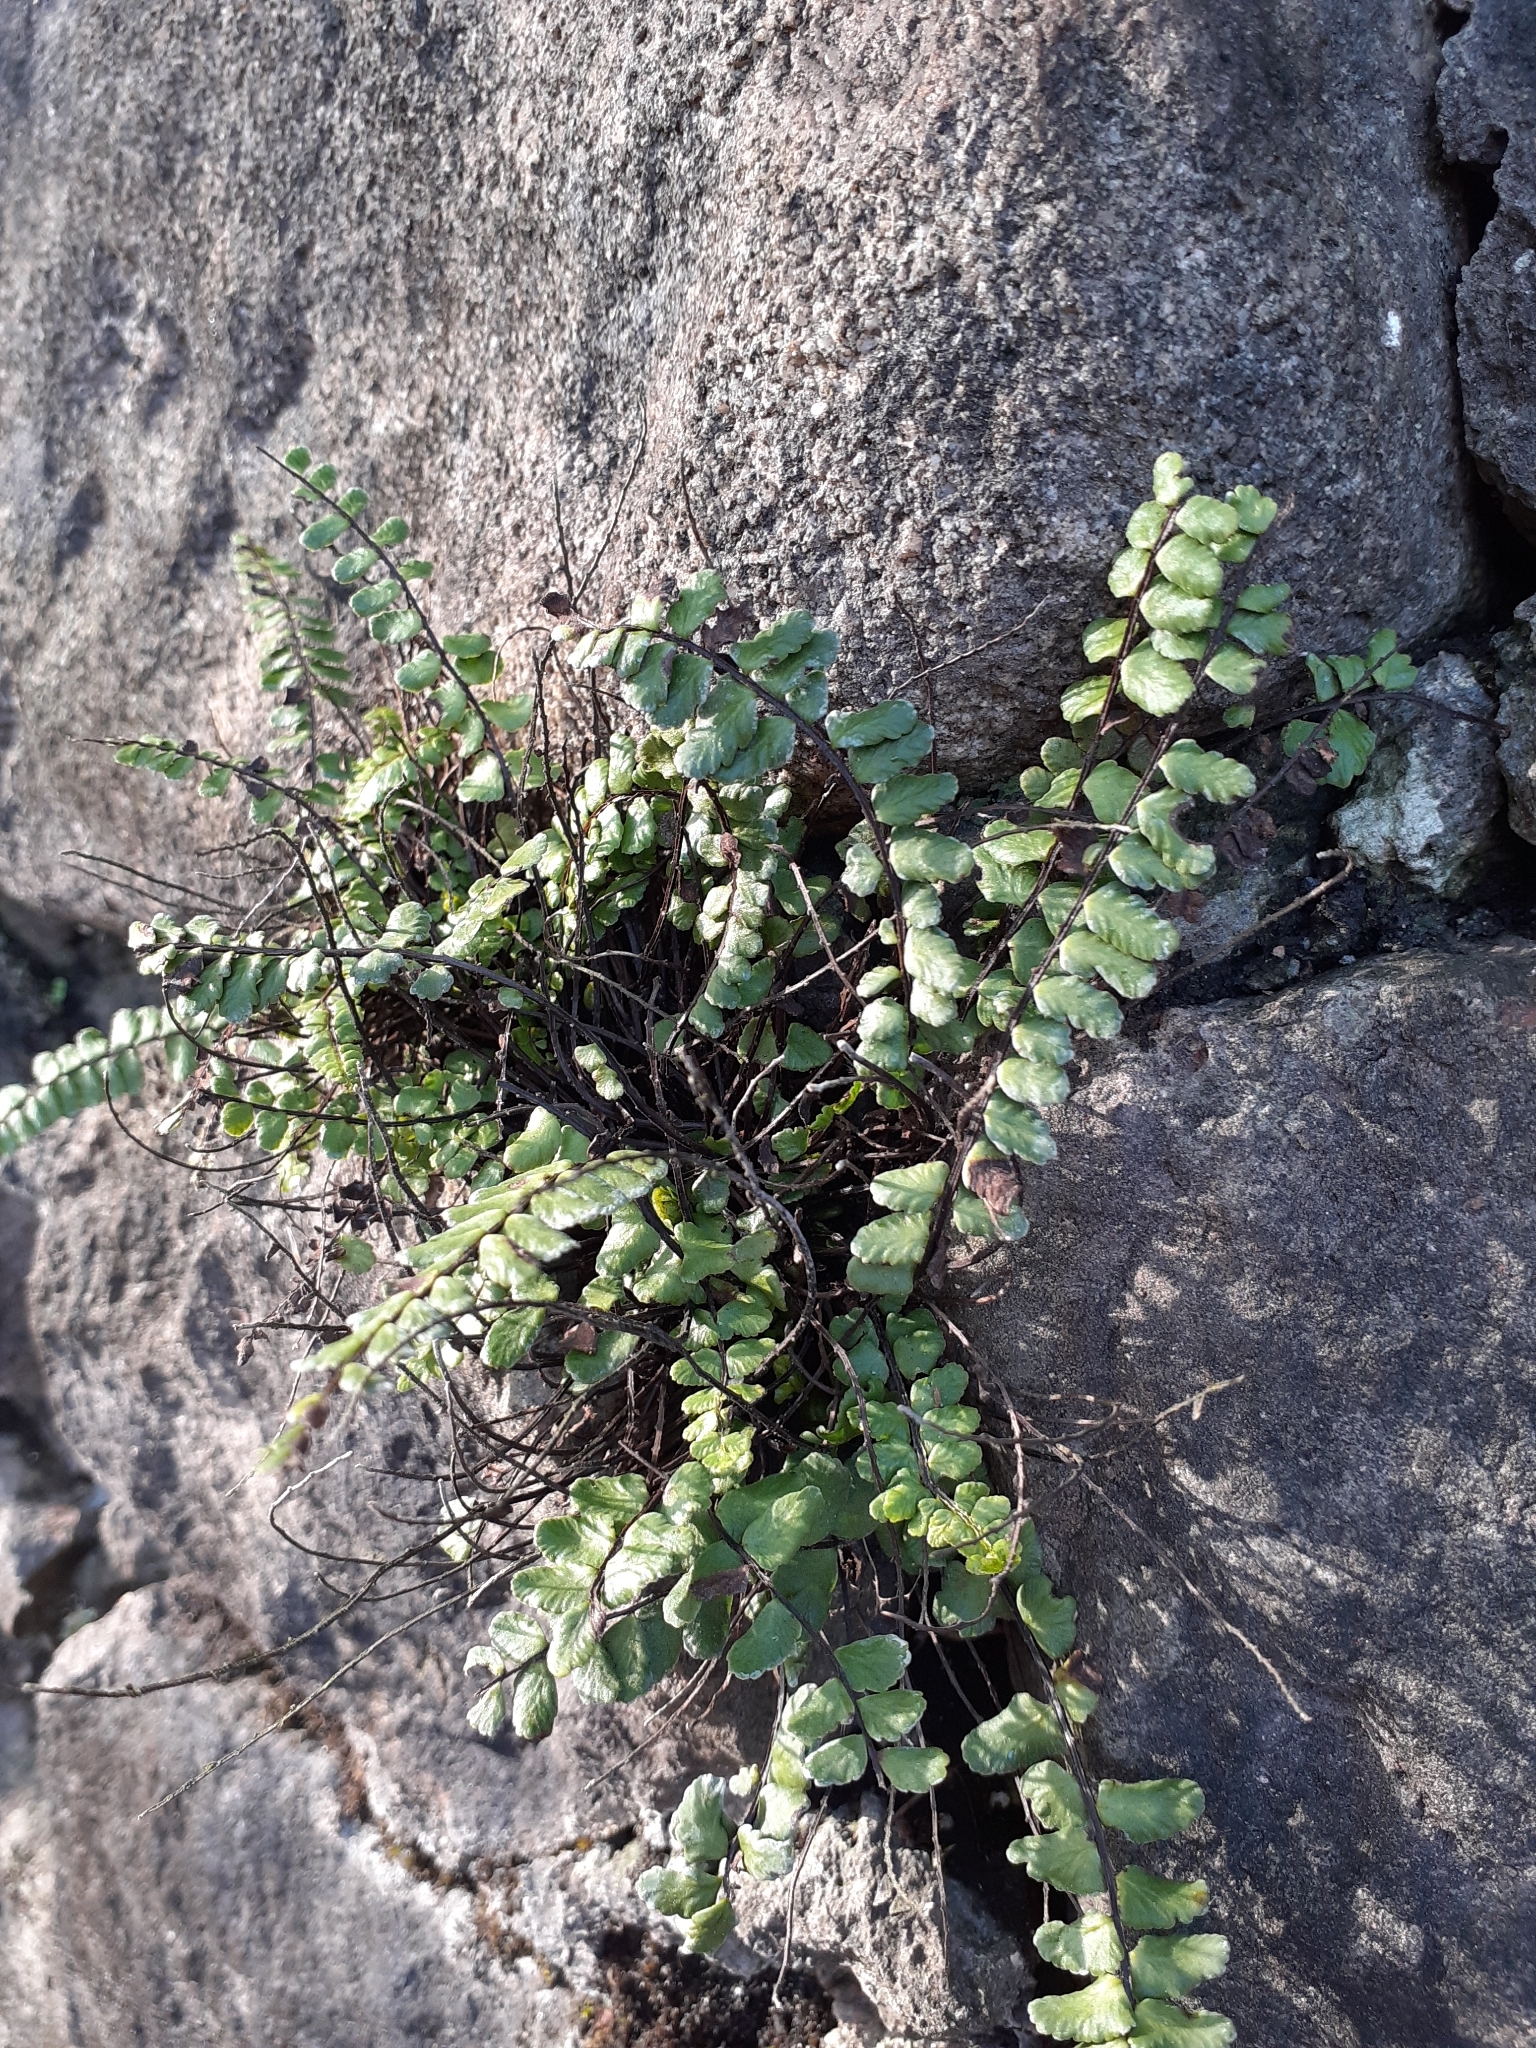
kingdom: Plantae
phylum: Tracheophyta
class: Polypodiopsida
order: Polypodiales
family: Aspleniaceae
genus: Asplenium
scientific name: Asplenium trichomanes
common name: Maidenhair spleenwort
